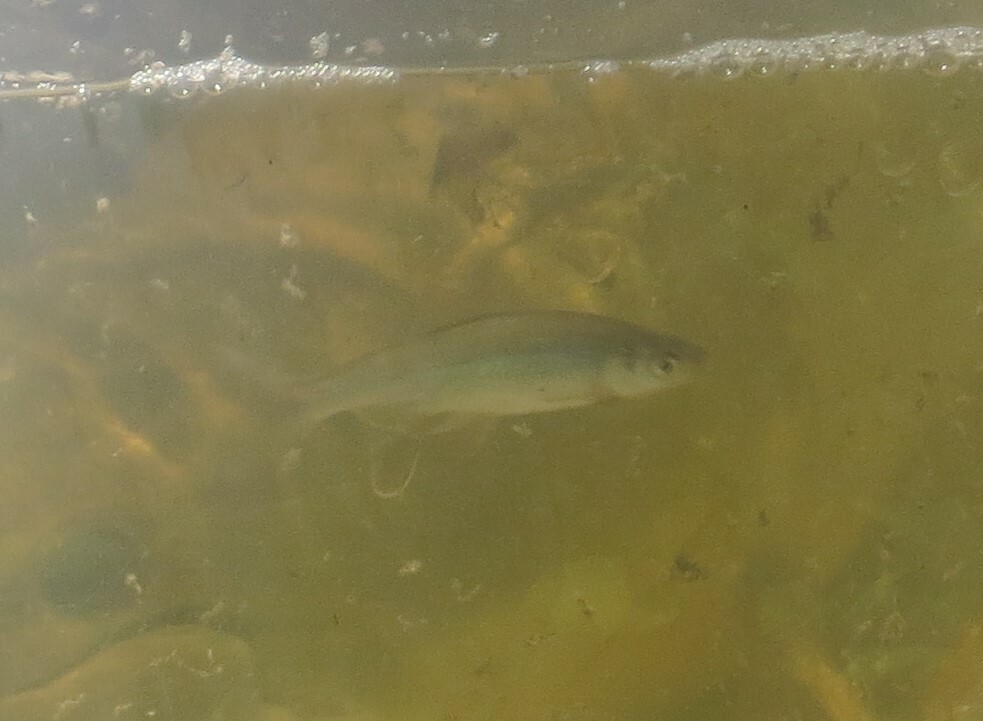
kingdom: Animalia
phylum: Chordata
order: Cypriniformes
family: Cyprinidae
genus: Notemigonus
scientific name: Notemigonus crysoleucas
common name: Golden shiner
